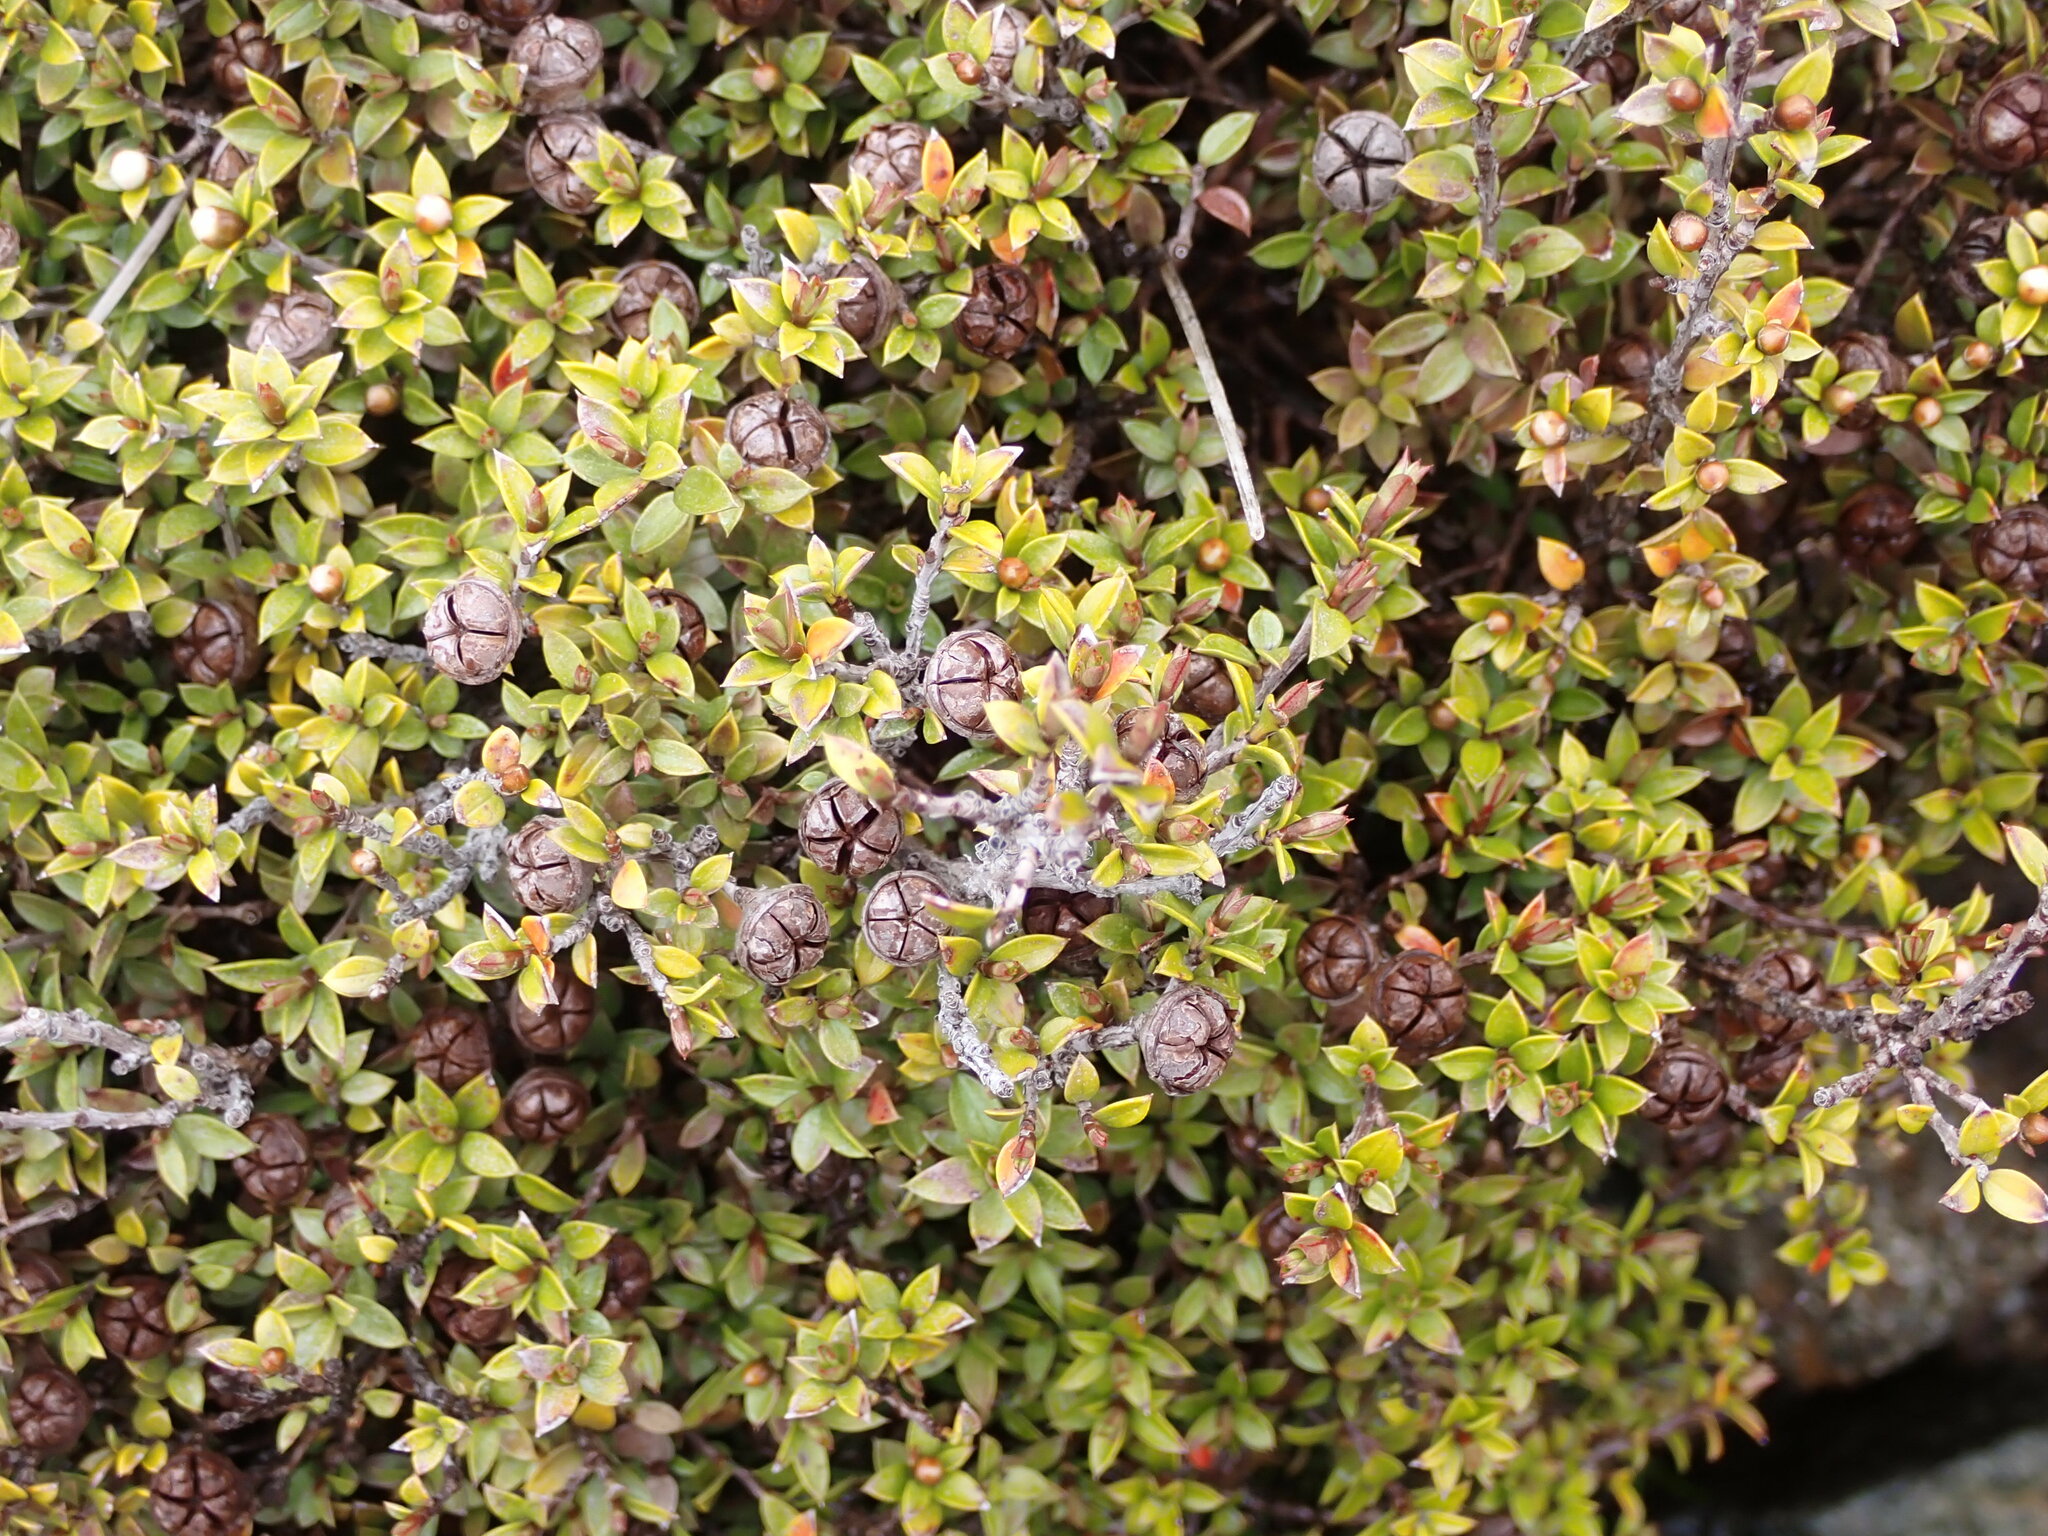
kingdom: Plantae
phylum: Tracheophyta
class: Magnoliopsida
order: Myrtales
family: Myrtaceae
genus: Leptospermum
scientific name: Leptospermum scoparium
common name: Broom tea-tree
